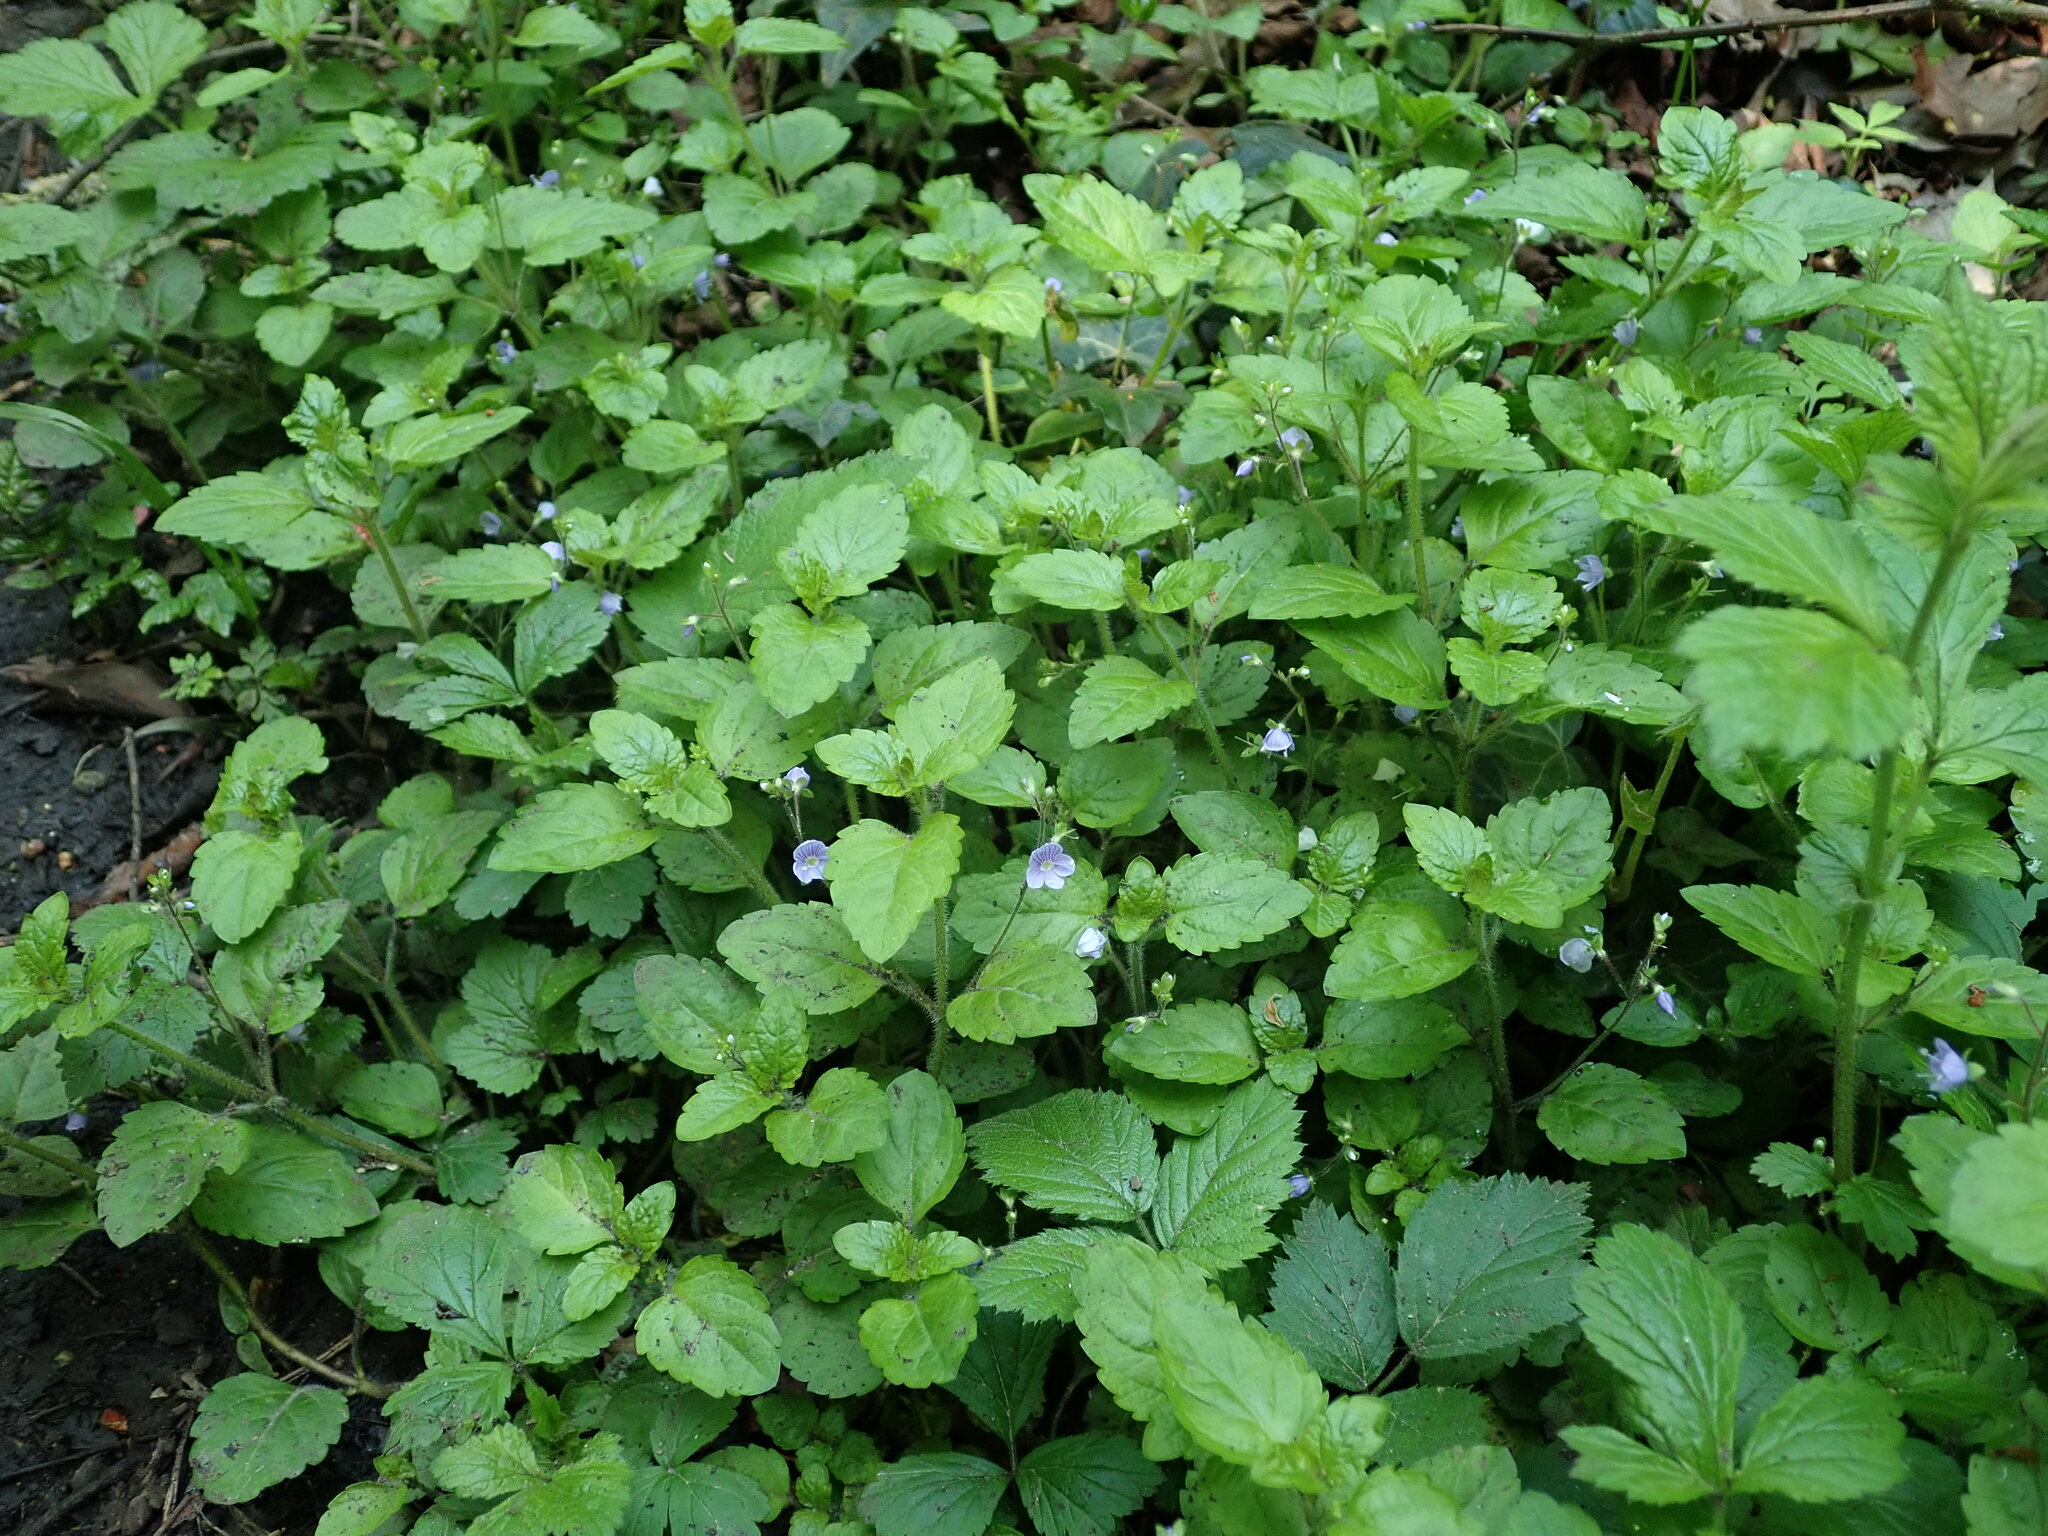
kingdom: Plantae
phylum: Tracheophyta
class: Magnoliopsida
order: Lamiales
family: Plantaginaceae
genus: Veronica
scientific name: Veronica montana
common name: Wood speedwell
